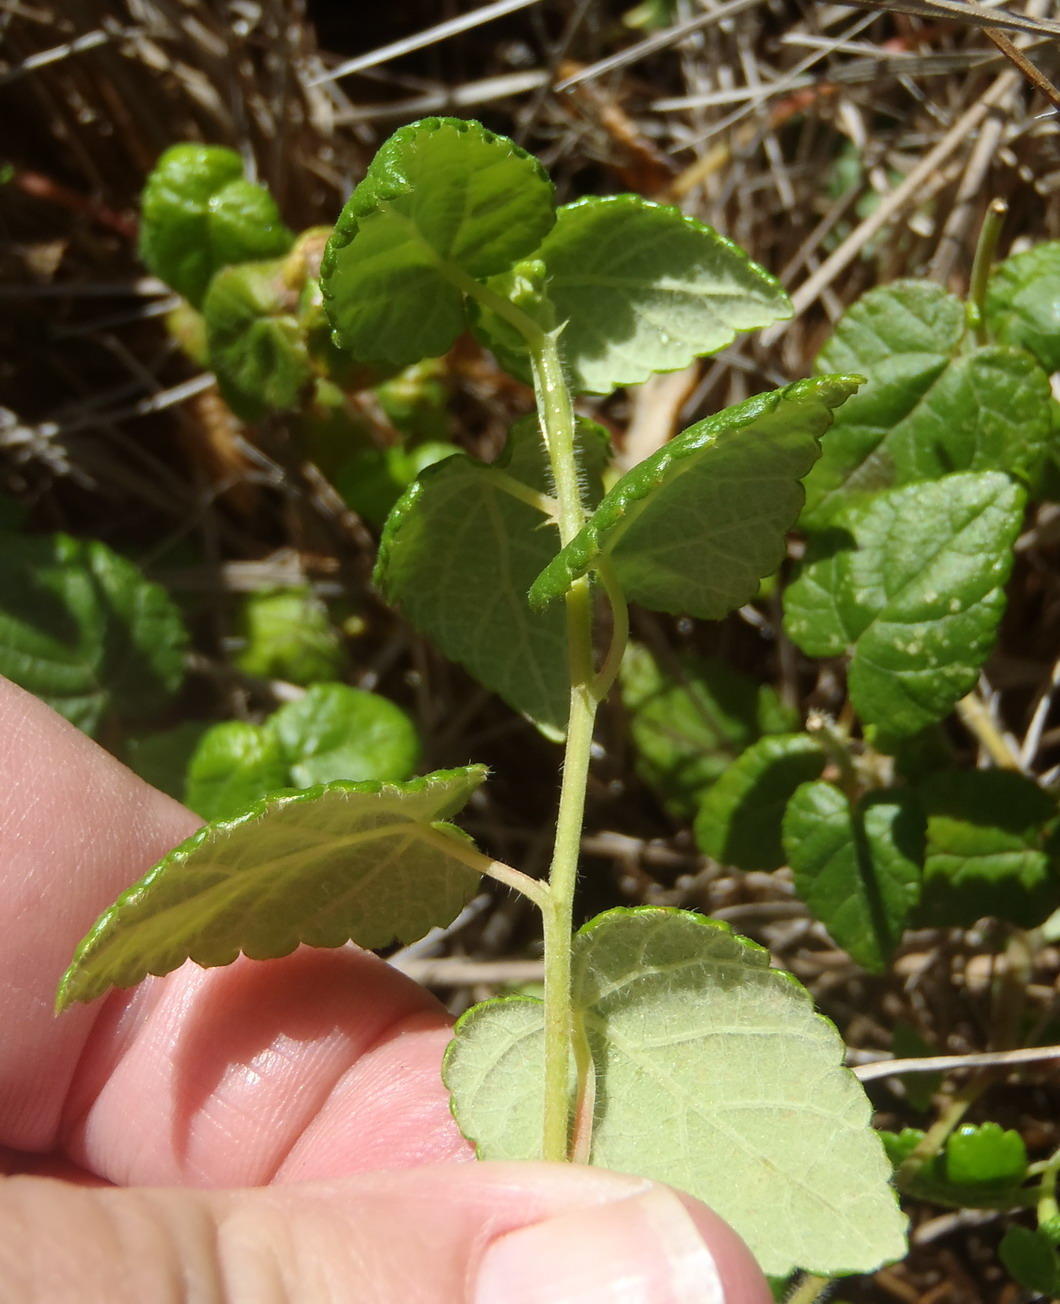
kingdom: Plantae
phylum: Tracheophyta
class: Magnoliopsida
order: Malpighiales
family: Euphorbiaceae
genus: Bernardia
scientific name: Bernardia corensis
